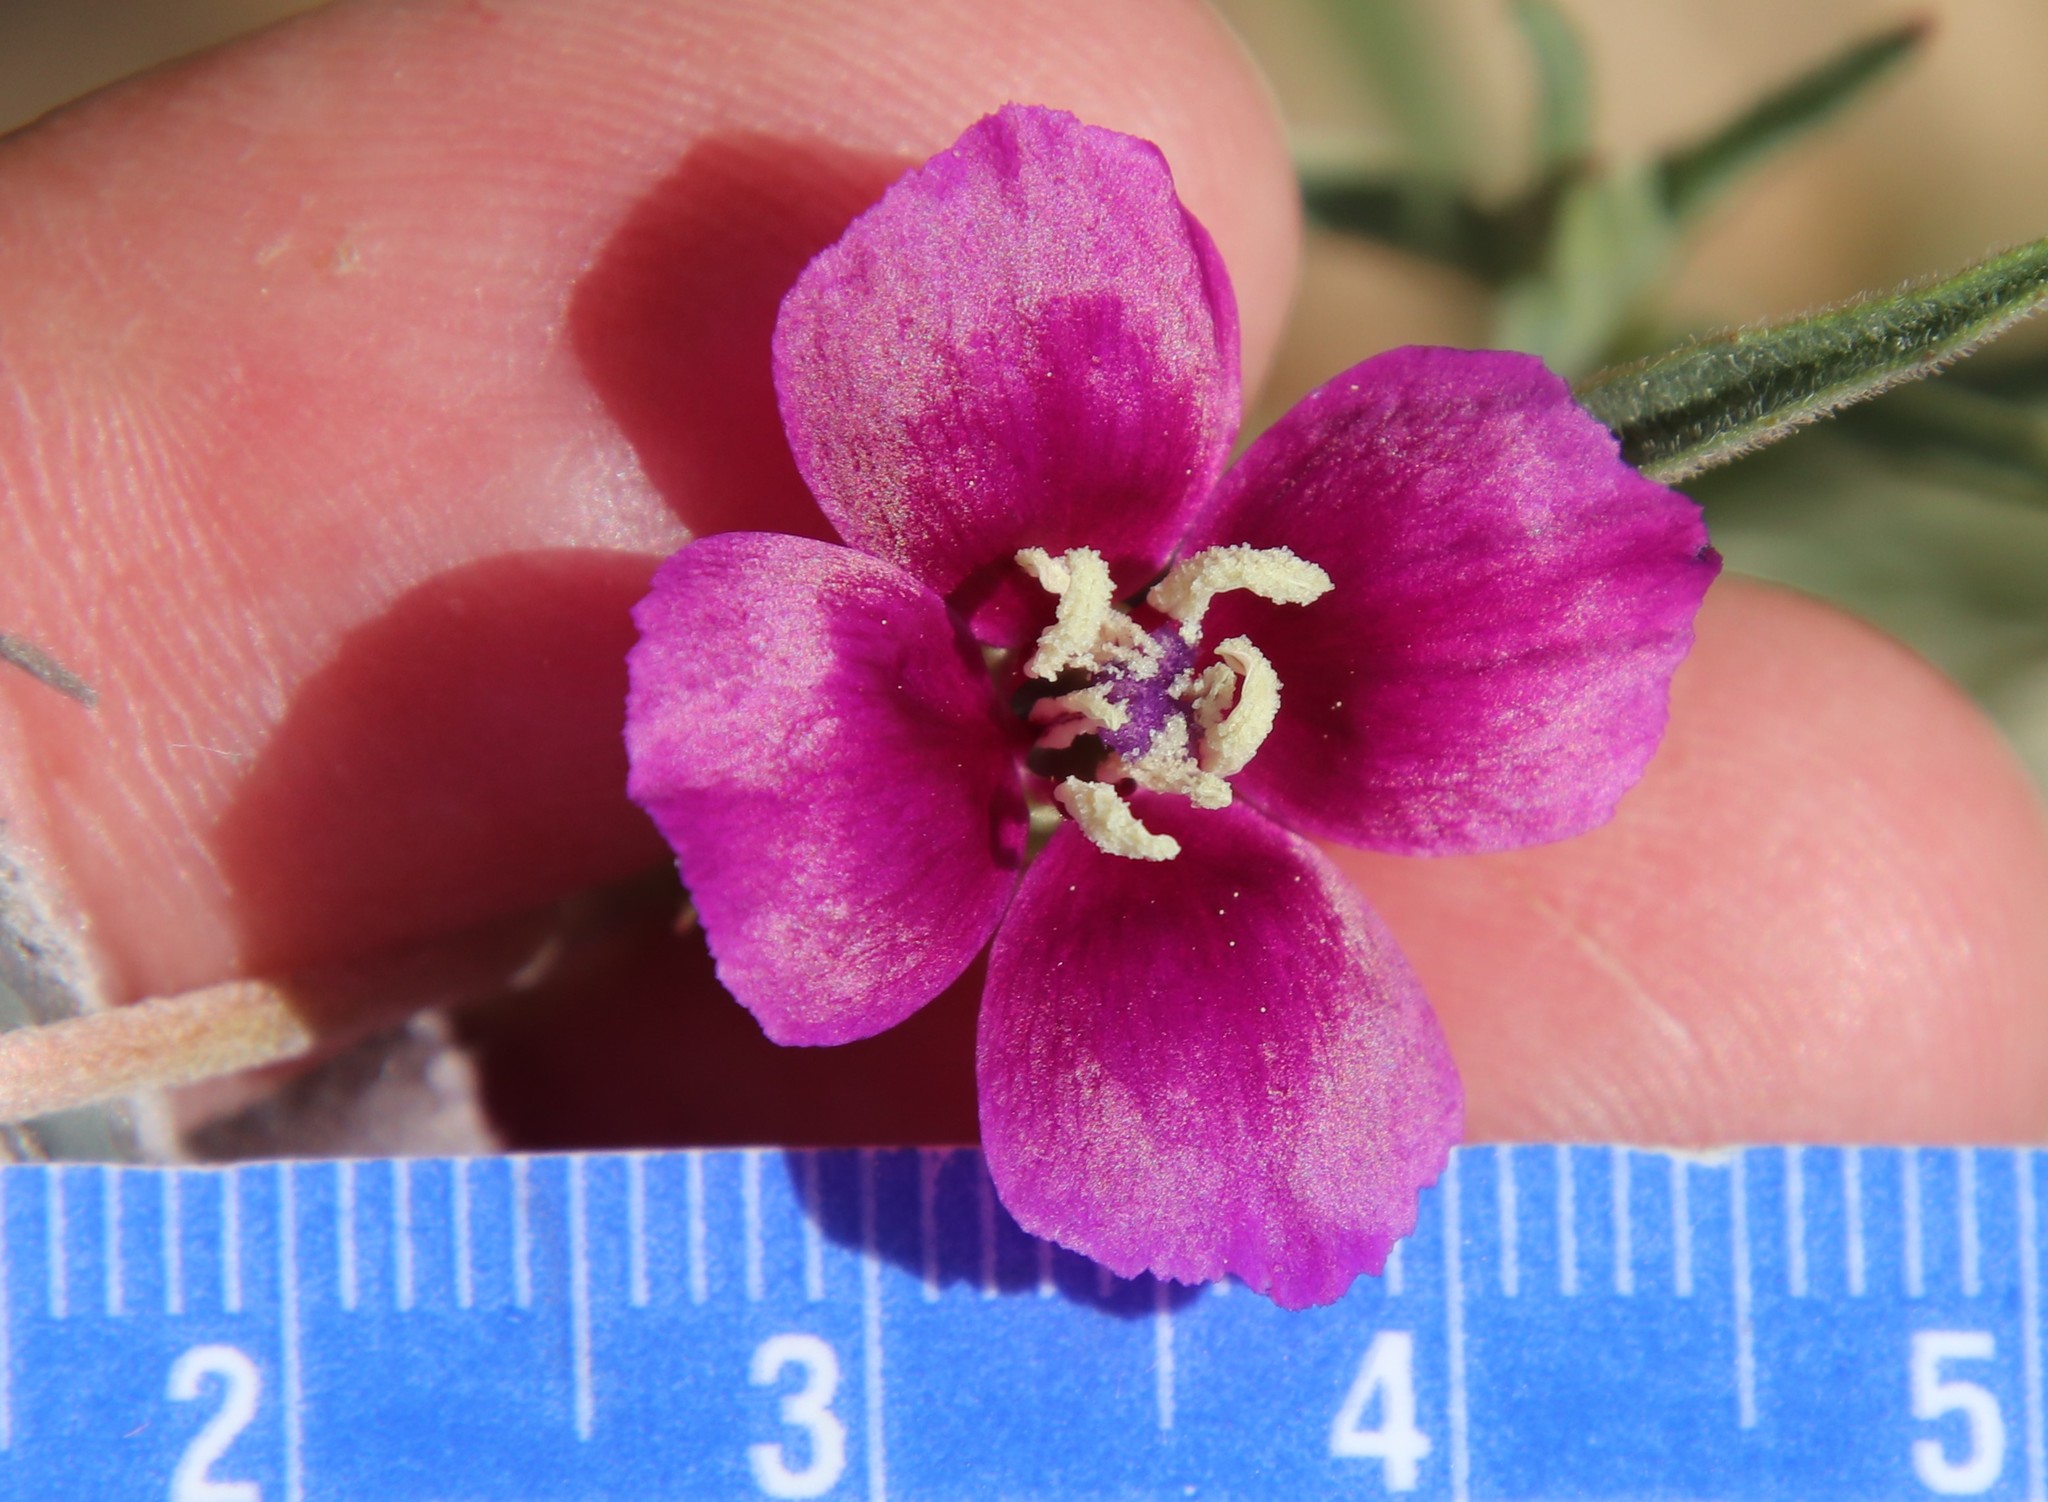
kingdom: Plantae
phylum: Tracheophyta
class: Magnoliopsida
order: Myrtales
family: Onagraceae
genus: Clarkia
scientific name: Clarkia purpurea
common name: Purple clarkia
